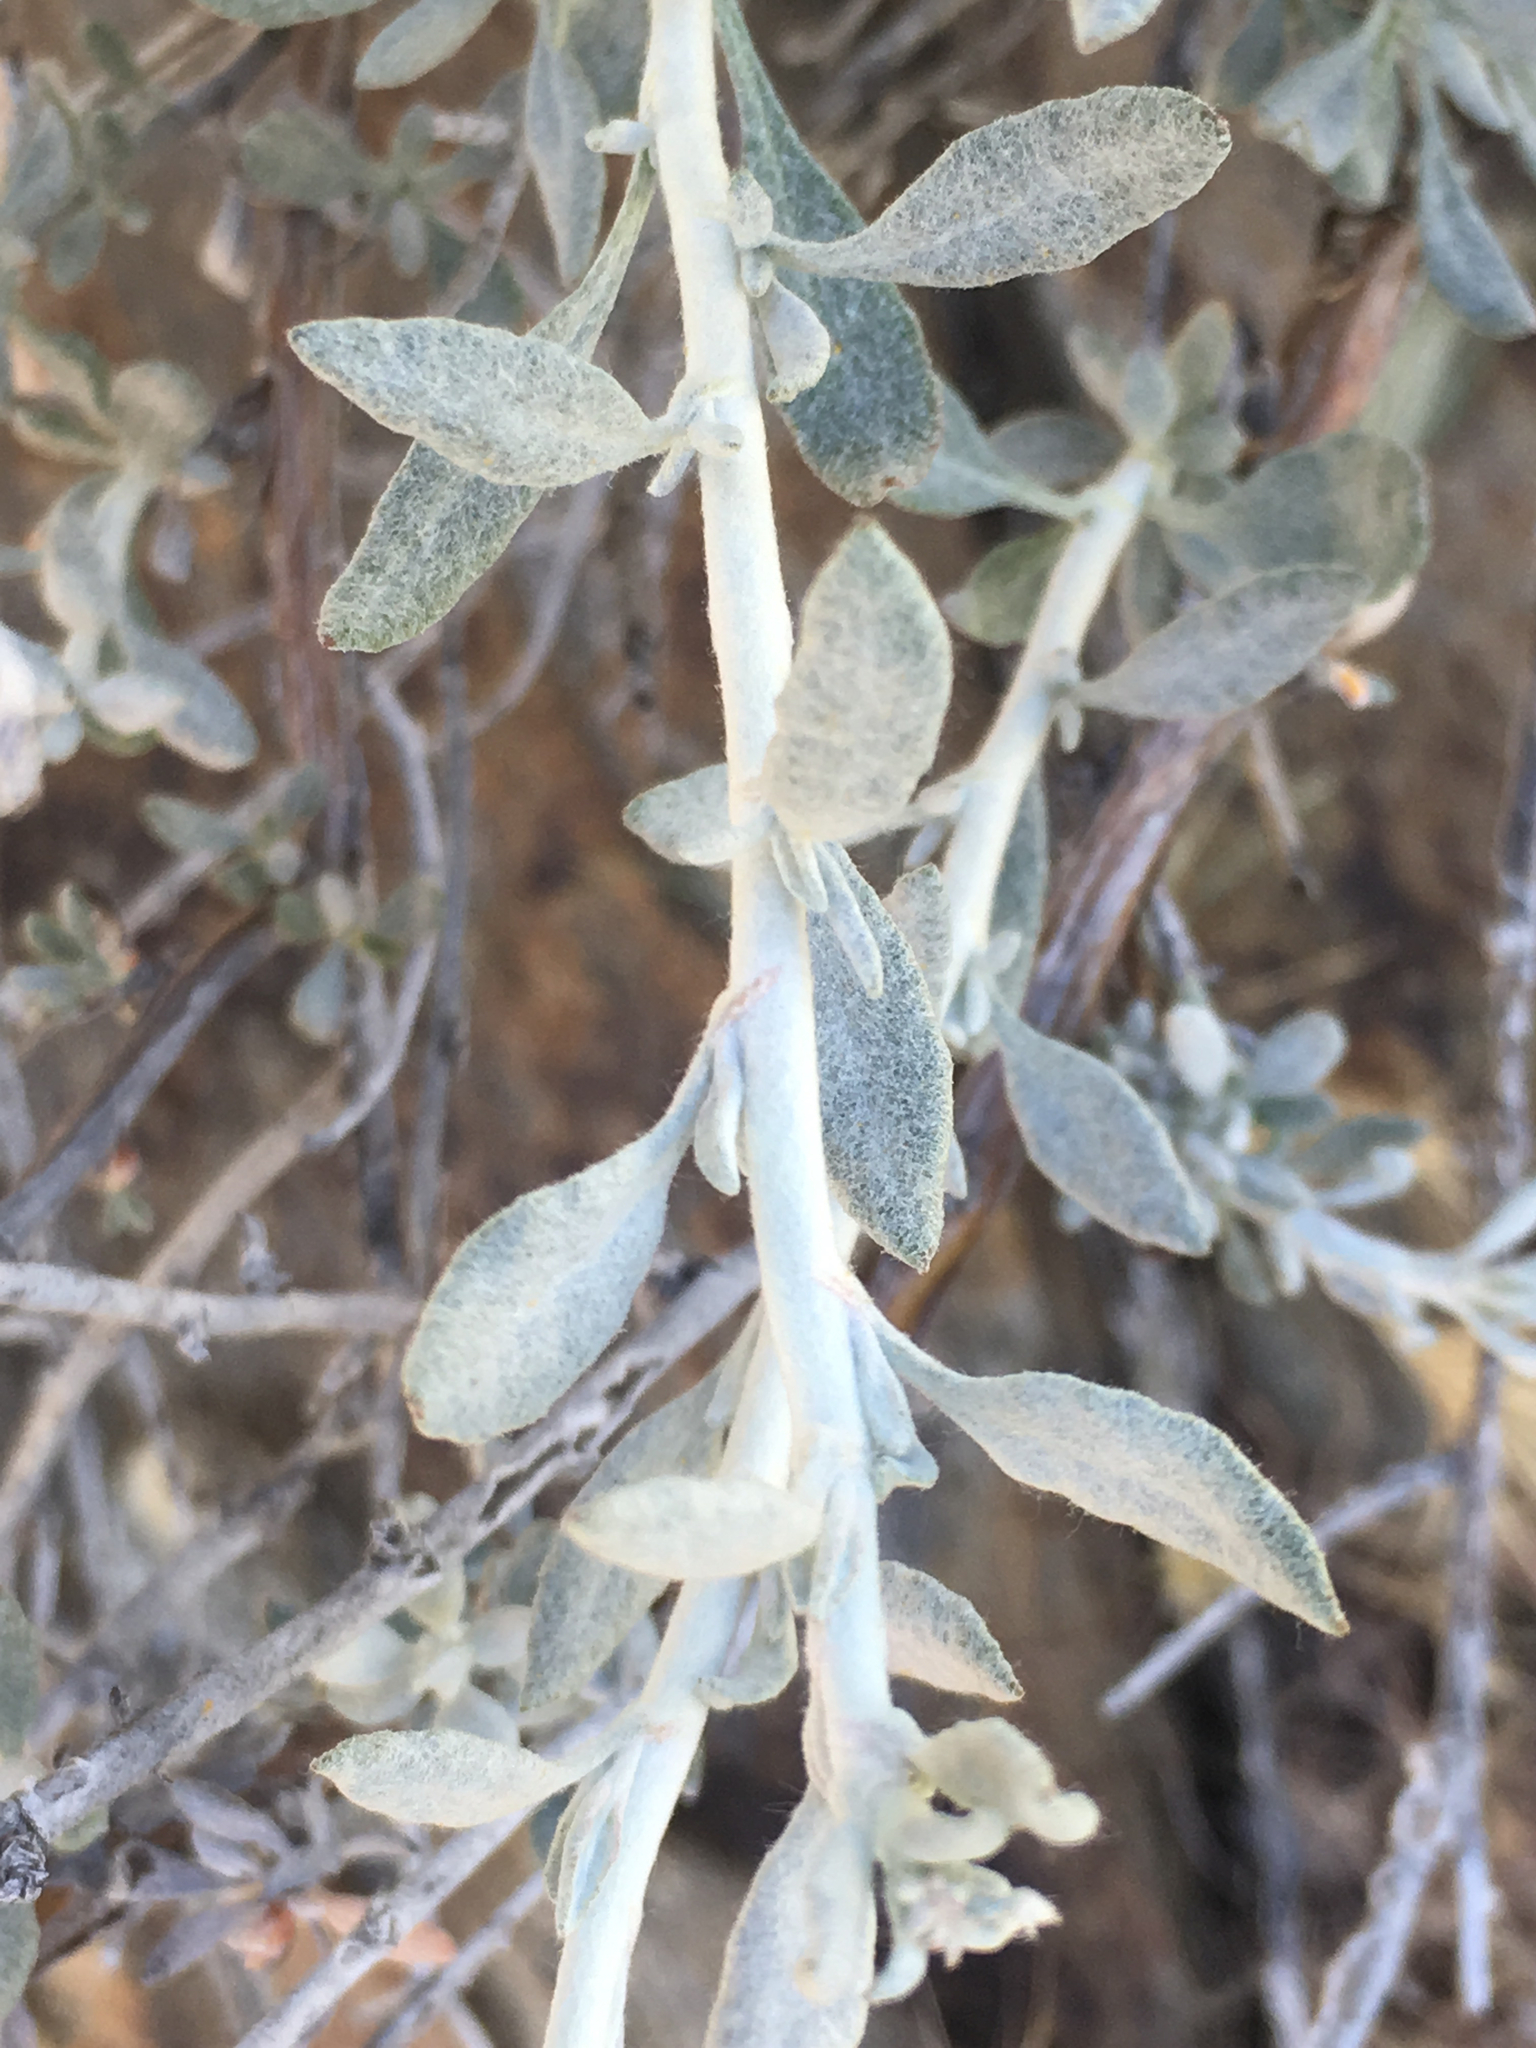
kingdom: Plantae
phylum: Tracheophyta
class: Magnoliopsida
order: Caryophyllales
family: Polygonaceae
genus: Eriogonum
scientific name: Eriogonum wrightii
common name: Bastard-sage
